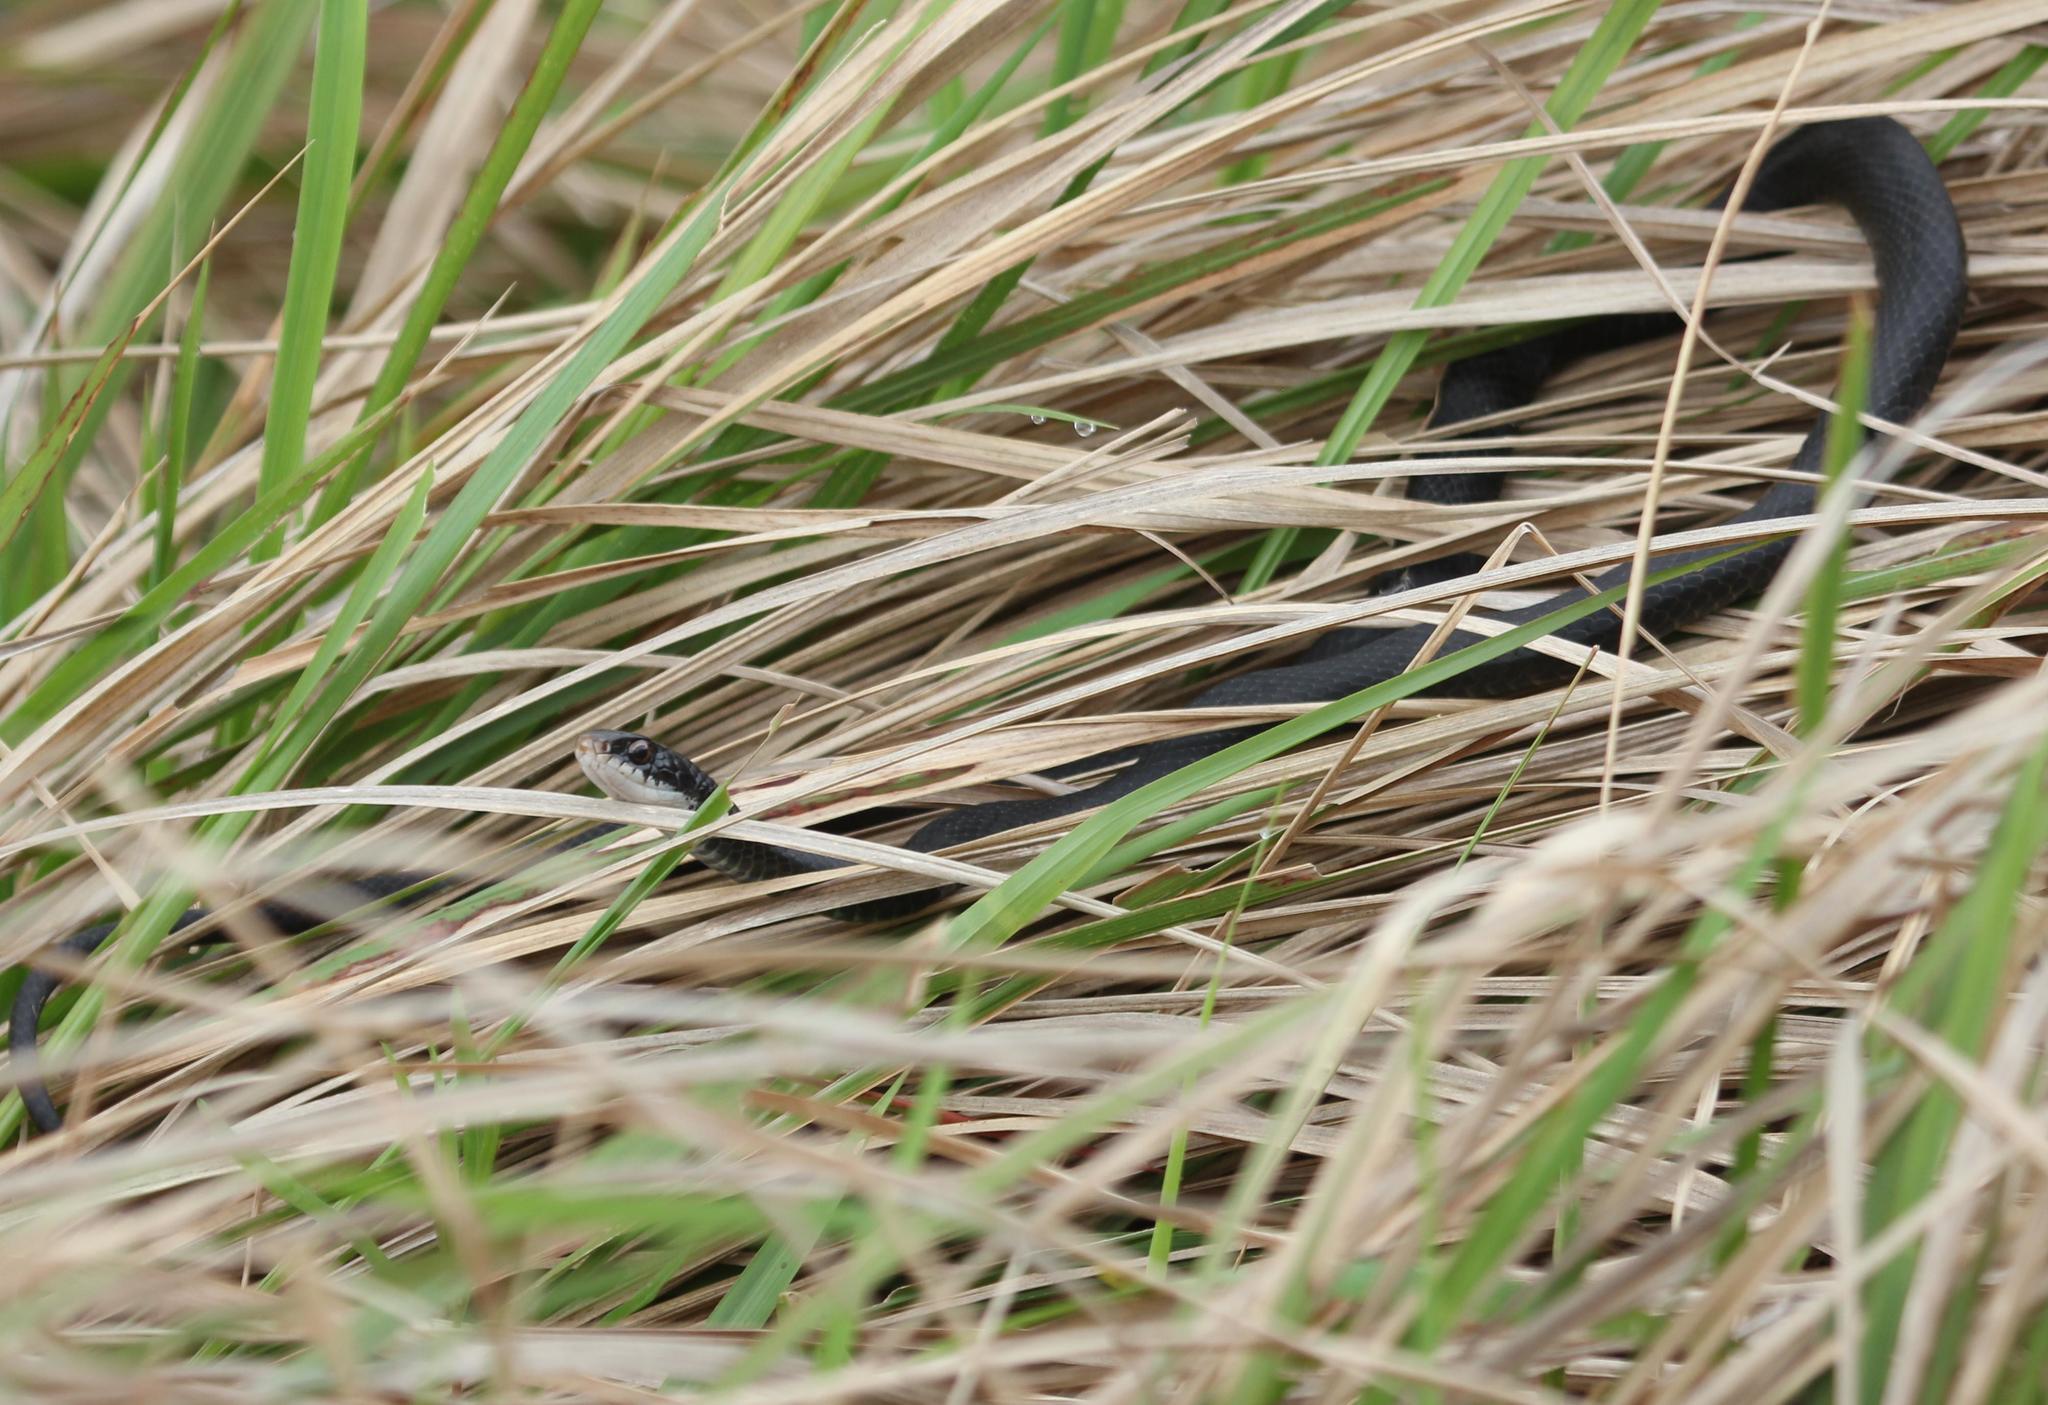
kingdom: Animalia
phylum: Chordata
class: Squamata
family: Colubridae
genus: Coluber
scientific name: Coluber constrictor
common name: Eastern racer
